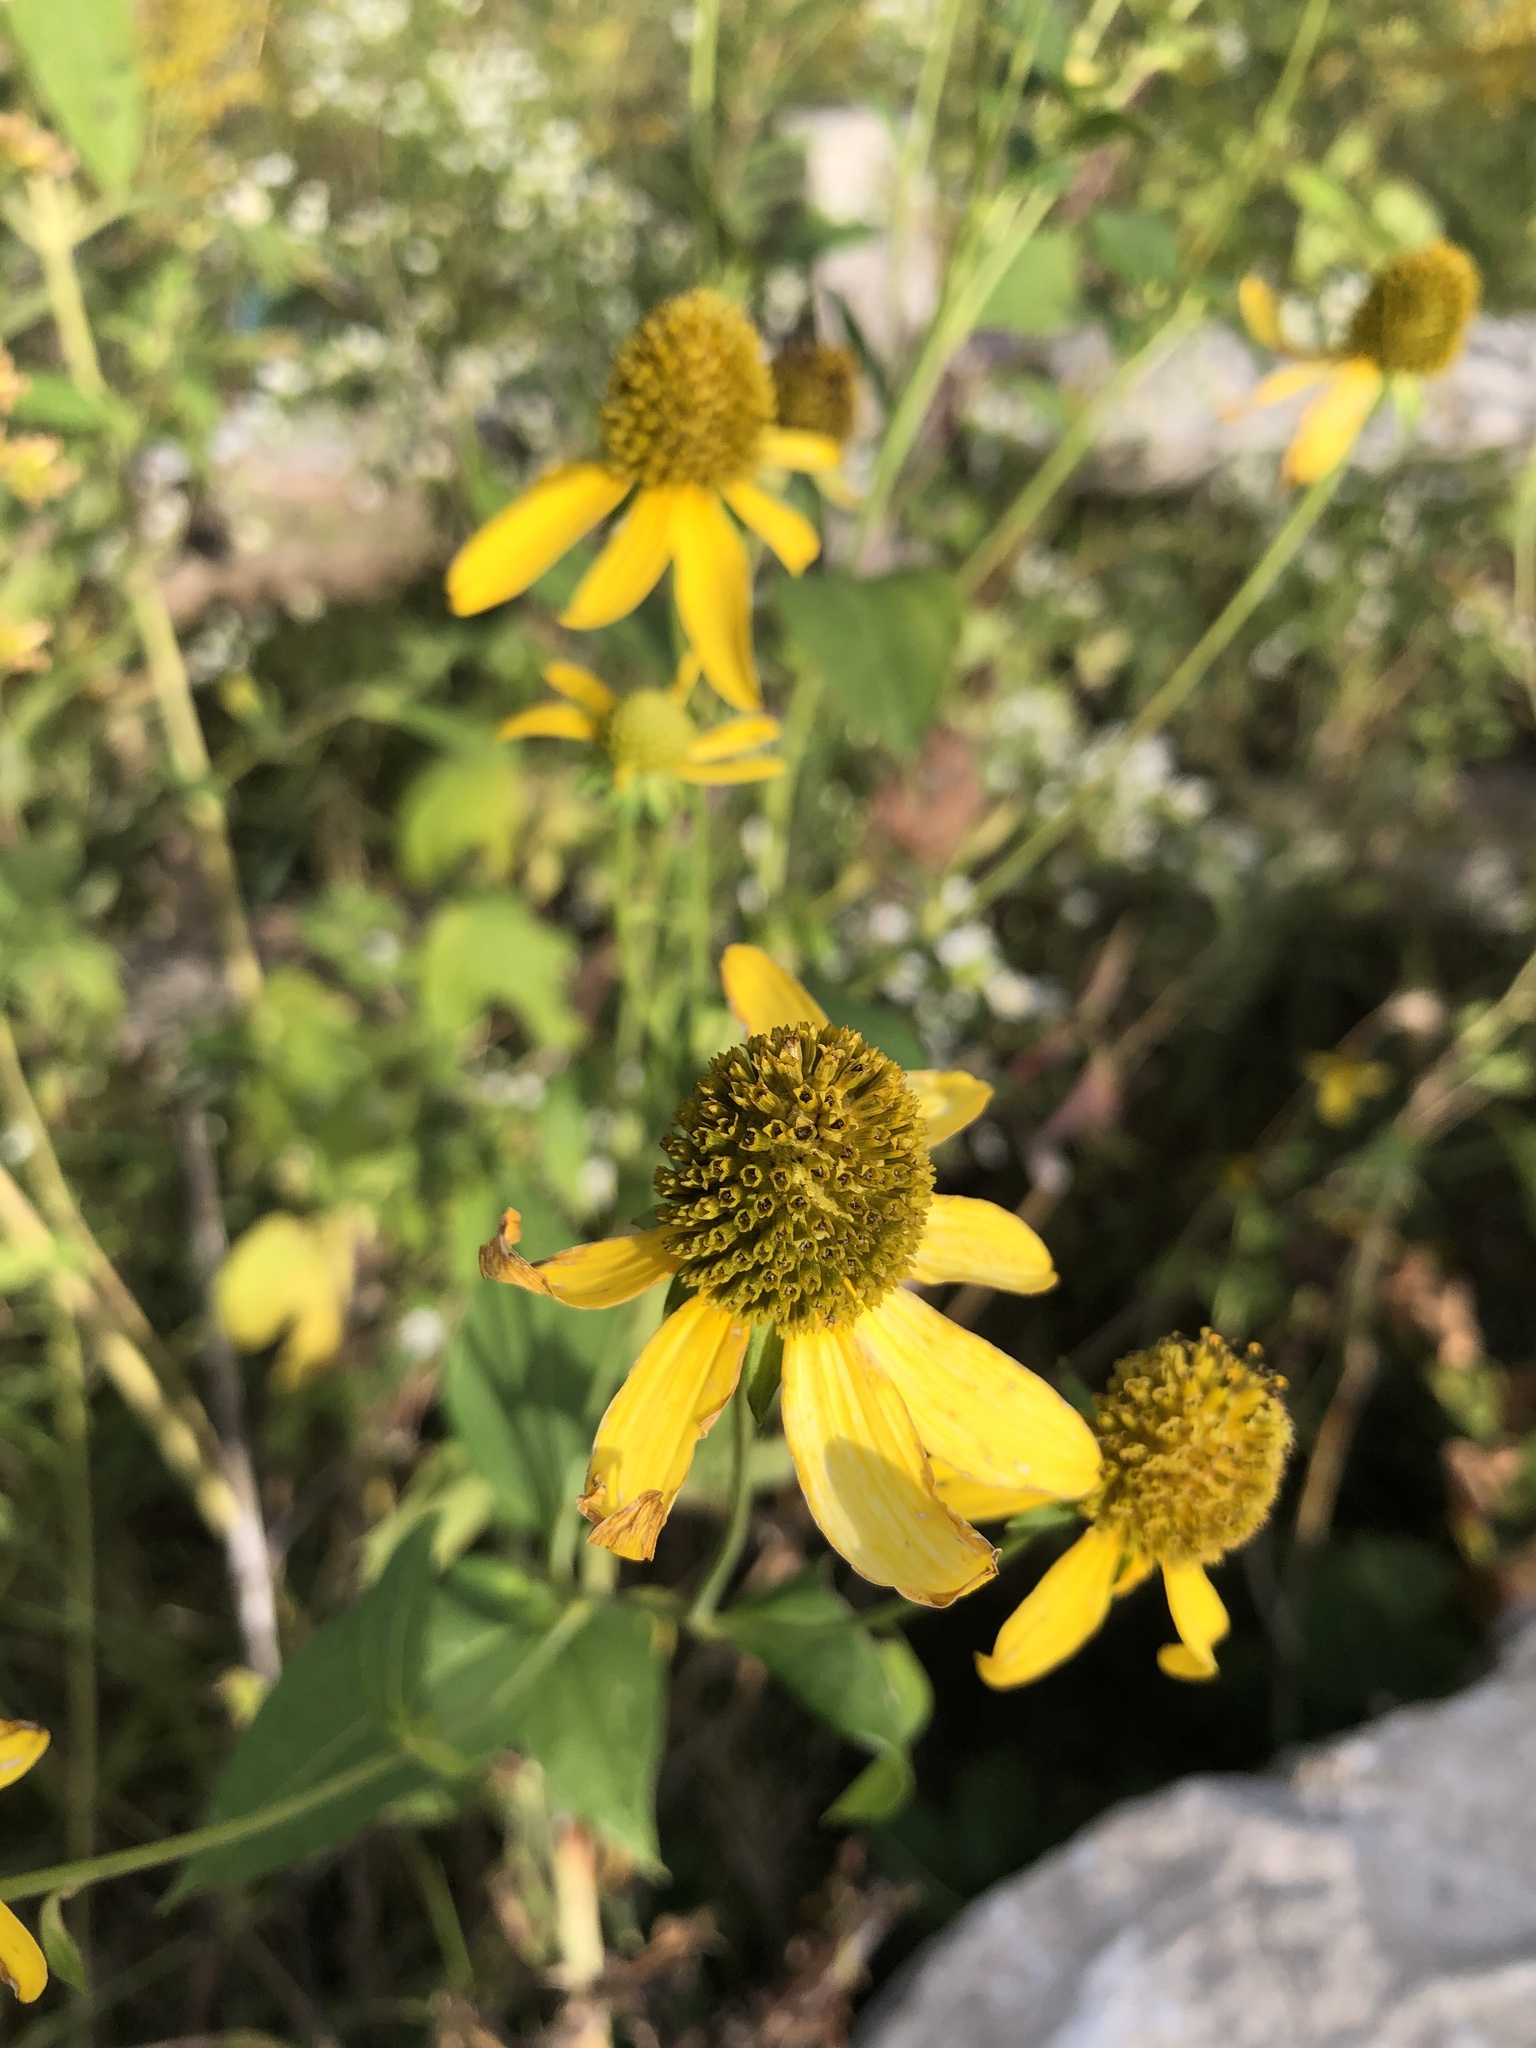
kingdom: Plantae
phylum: Tracheophyta
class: Magnoliopsida
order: Asterales
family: Asteraceae
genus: Rudbeckia
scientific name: Rudbeckia laciniata
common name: Coneflower
